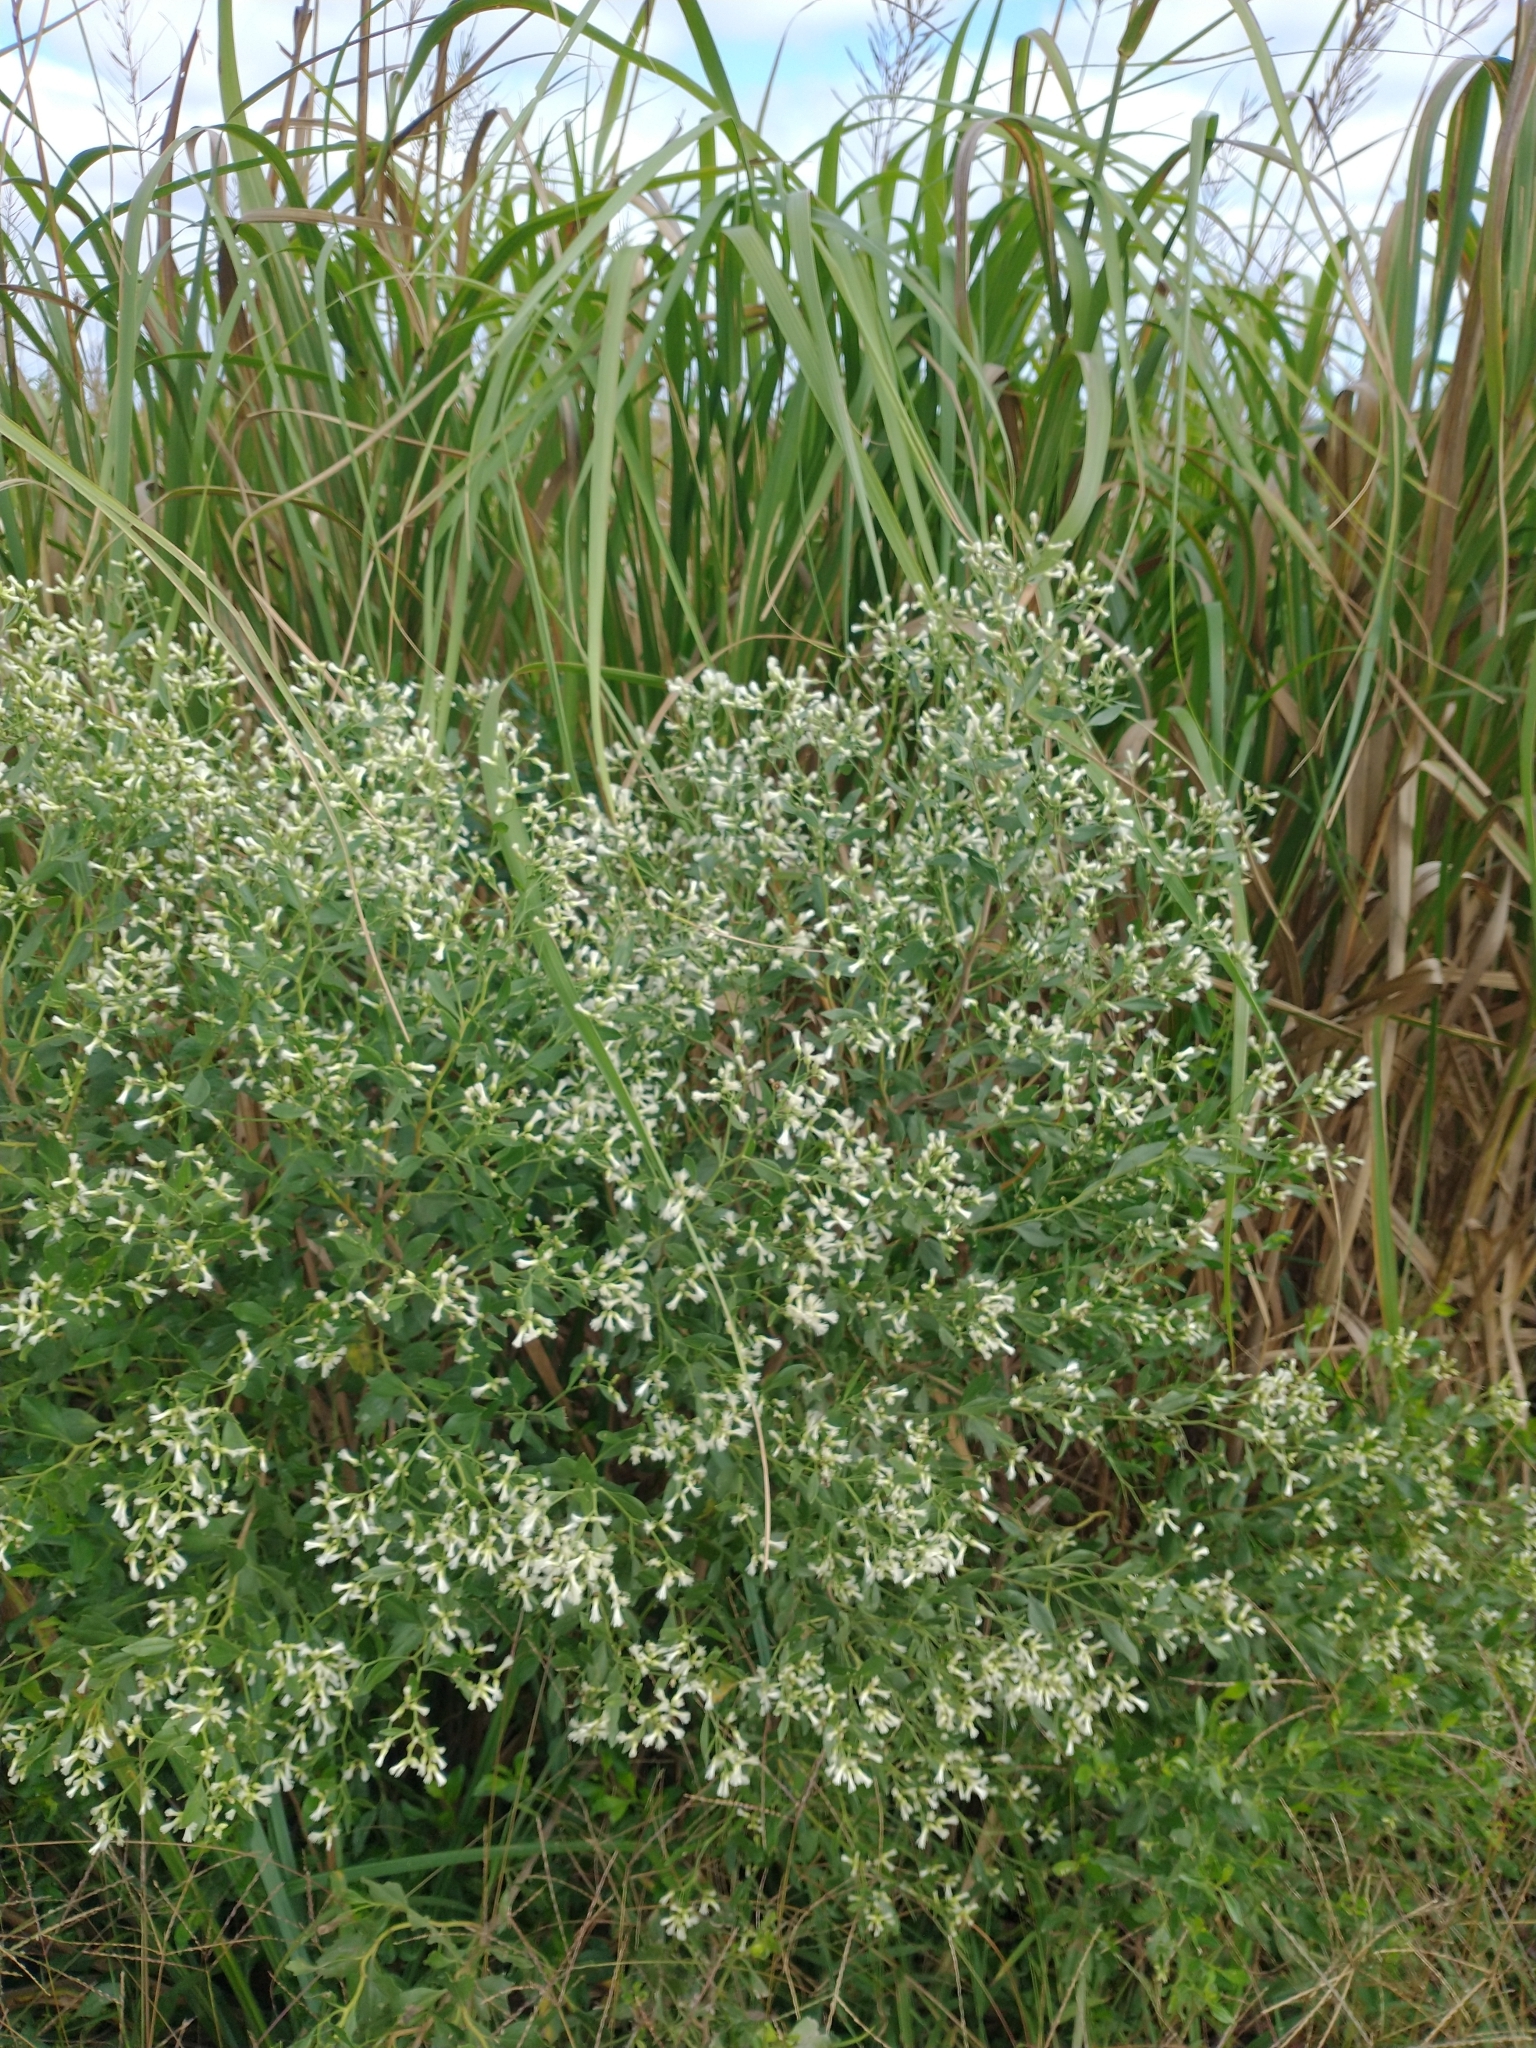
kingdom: Plantae
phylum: Tracheophyta
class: Magnoliopsida
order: Asterales
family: Asteraceae
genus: Baccharis
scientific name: Baccharis halimifolia
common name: Eastern baccharis
